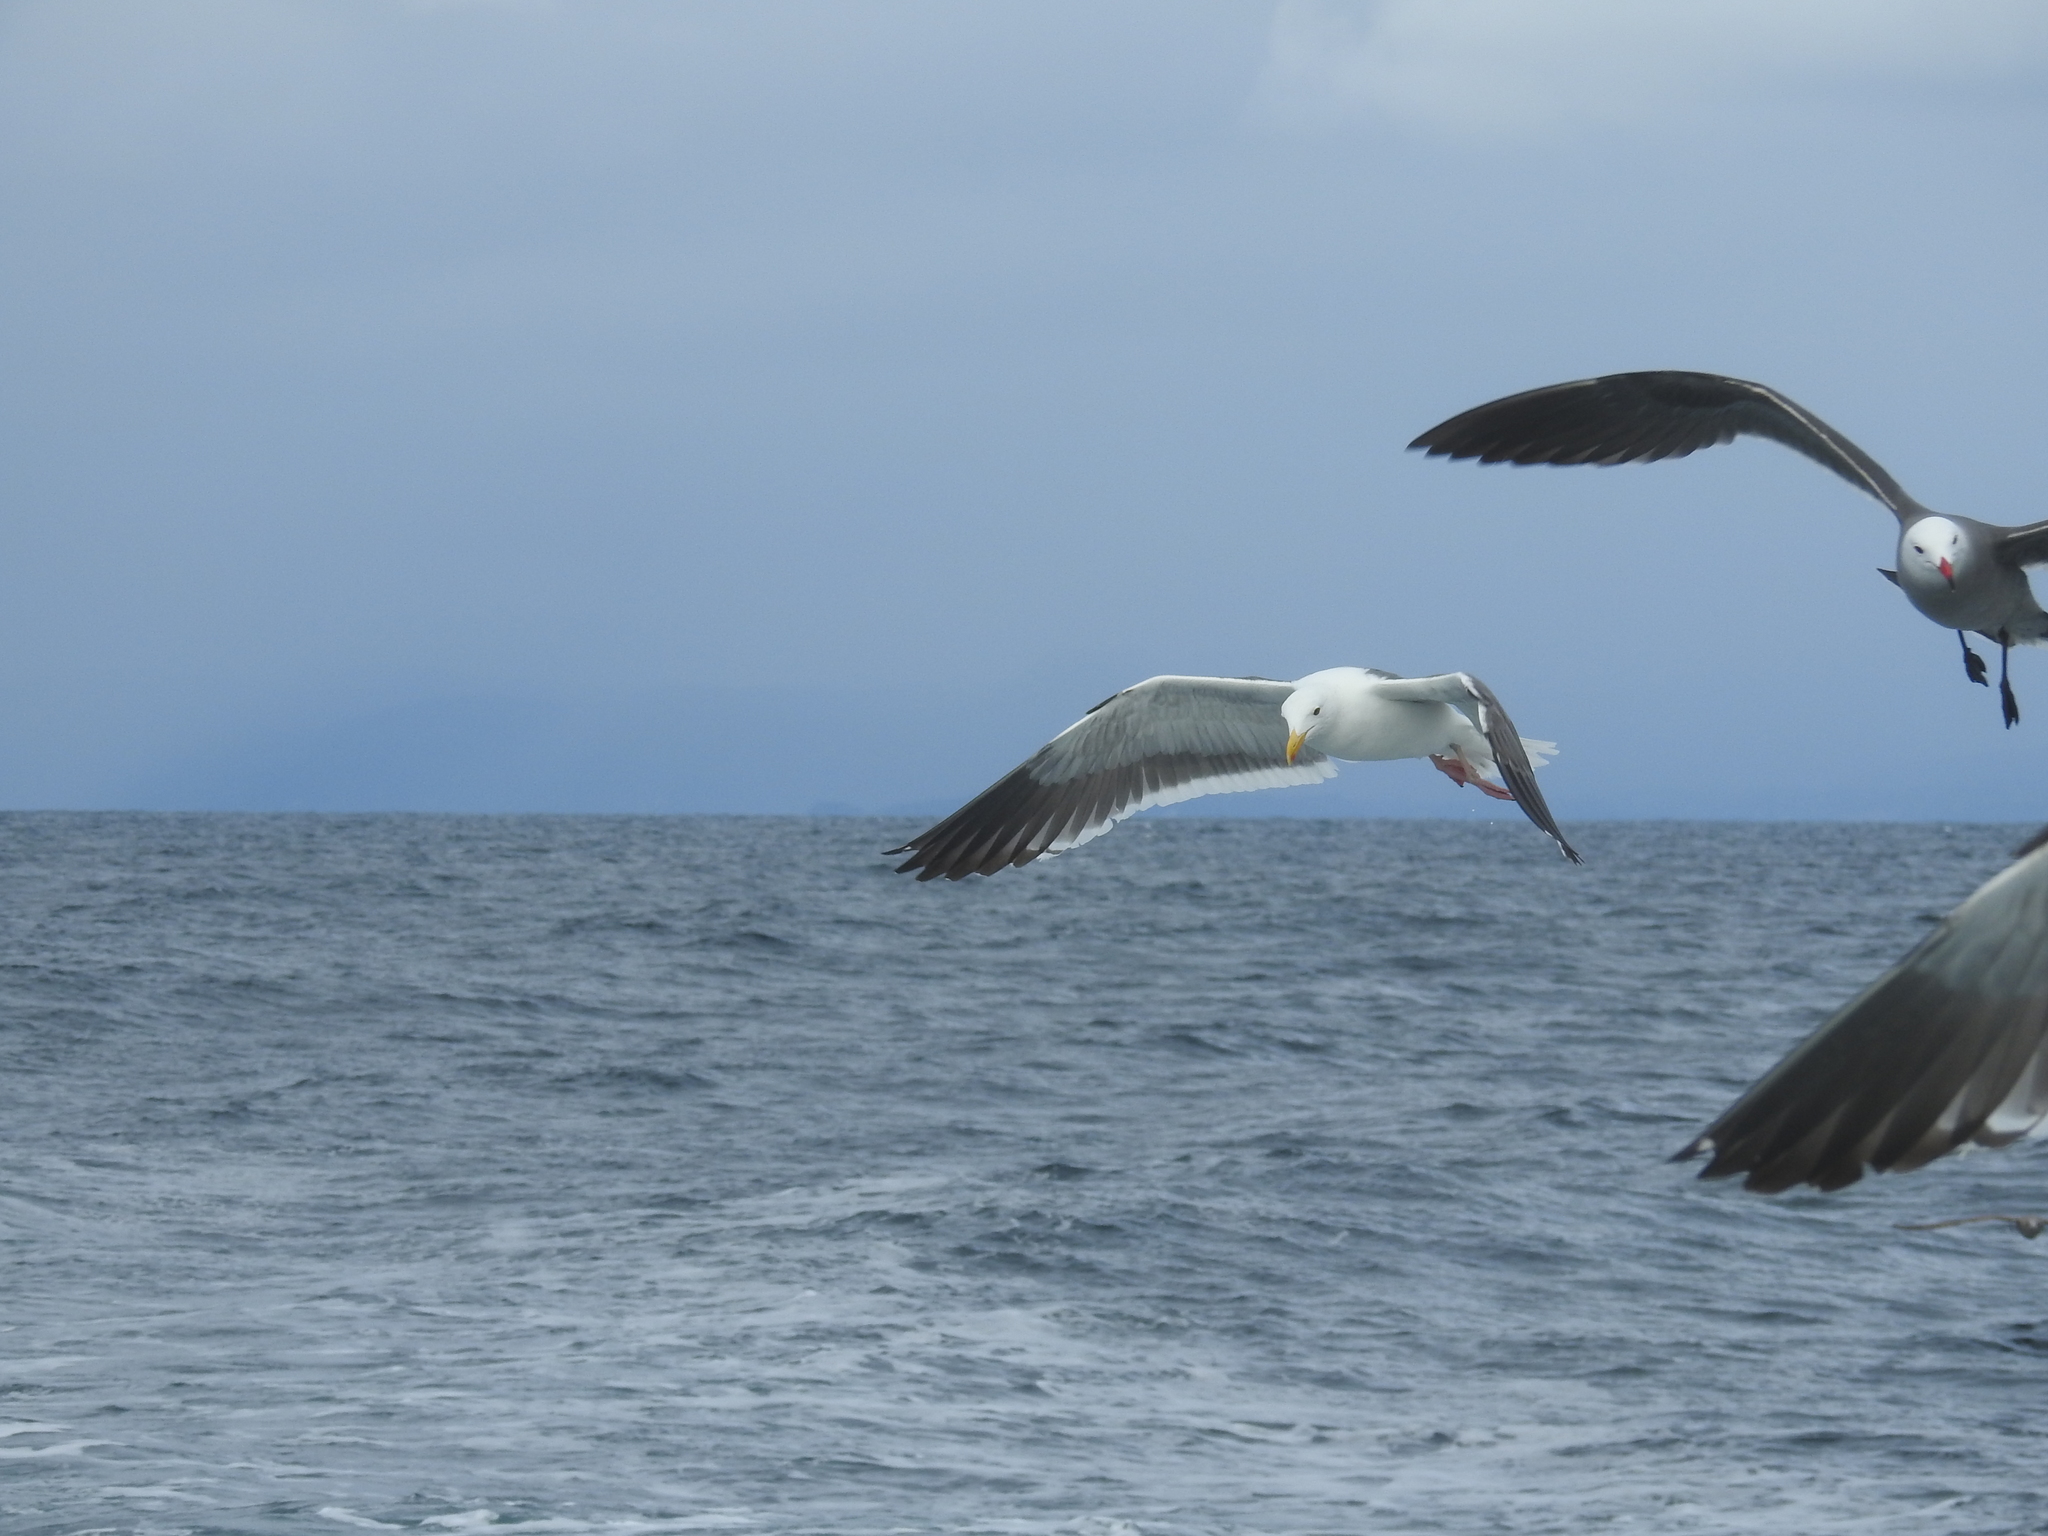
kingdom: Animalia
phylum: Chordata
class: Aves
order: Charadriiformes
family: Laridae
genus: Larus
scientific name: Larus occidentalis
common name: Western gull
